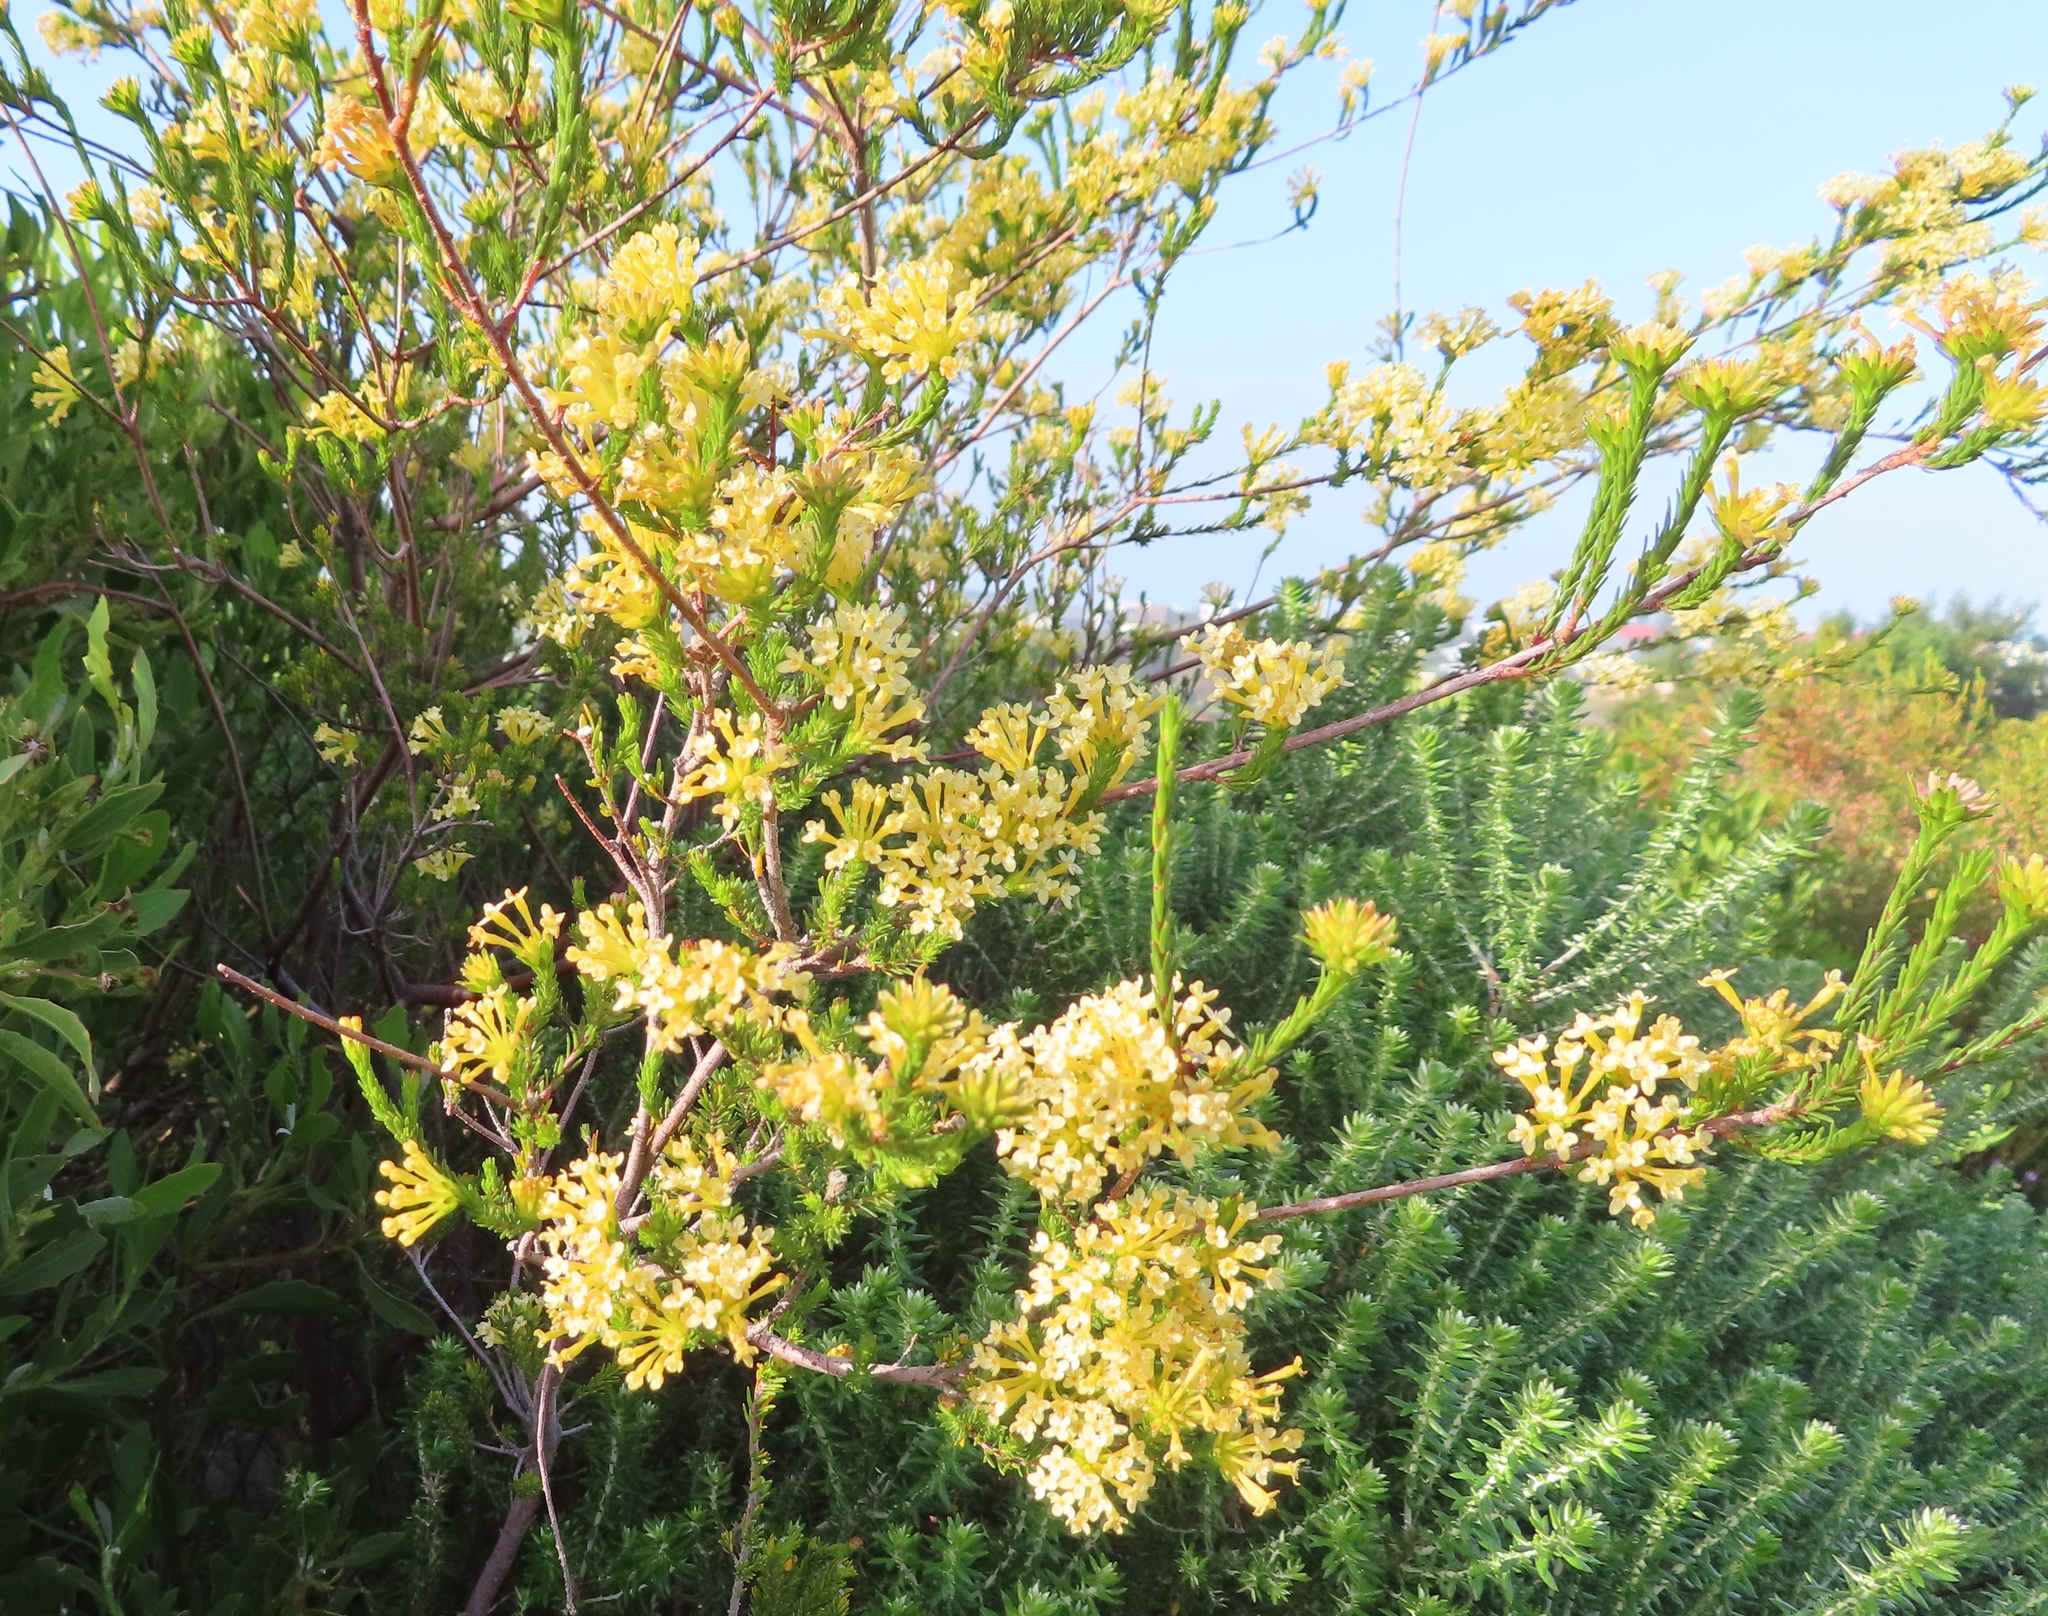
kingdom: Plantae
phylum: Tracheophyta
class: Magnoliopsida
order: Malvales
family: Thymelaeaceae
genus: Gnidia
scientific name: Gnidia squarrosa
